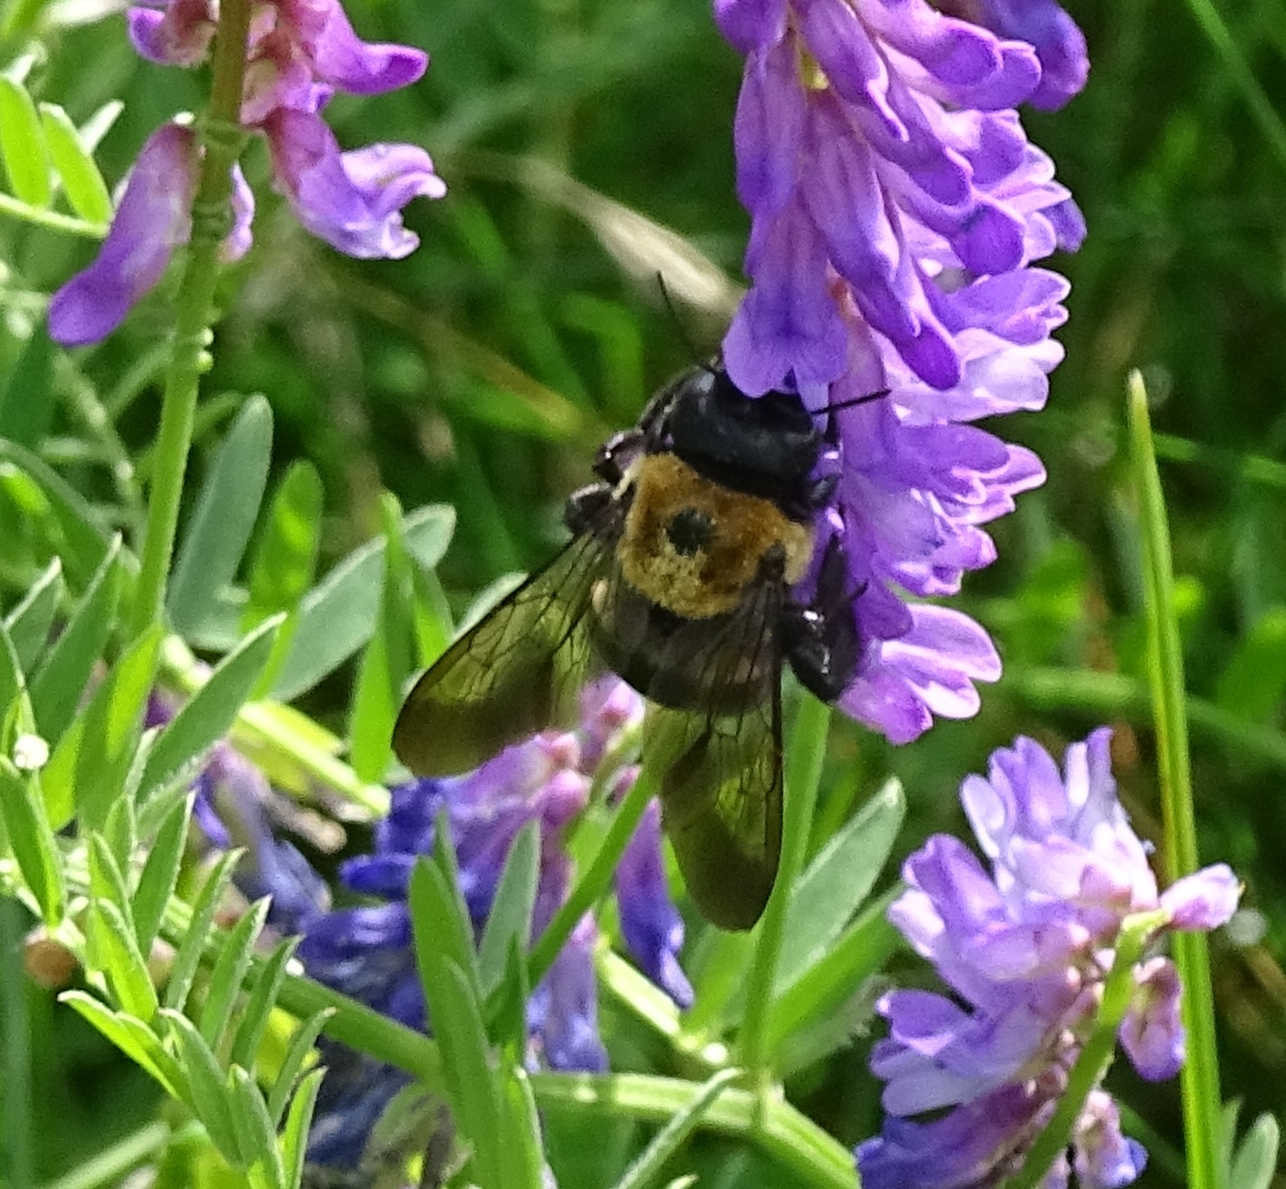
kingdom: Animalia
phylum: Arthropoda
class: Insecta
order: Hymenoptera
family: Apidae
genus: Xylocopa
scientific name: Xylocopa virginica
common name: Carpenter bee
